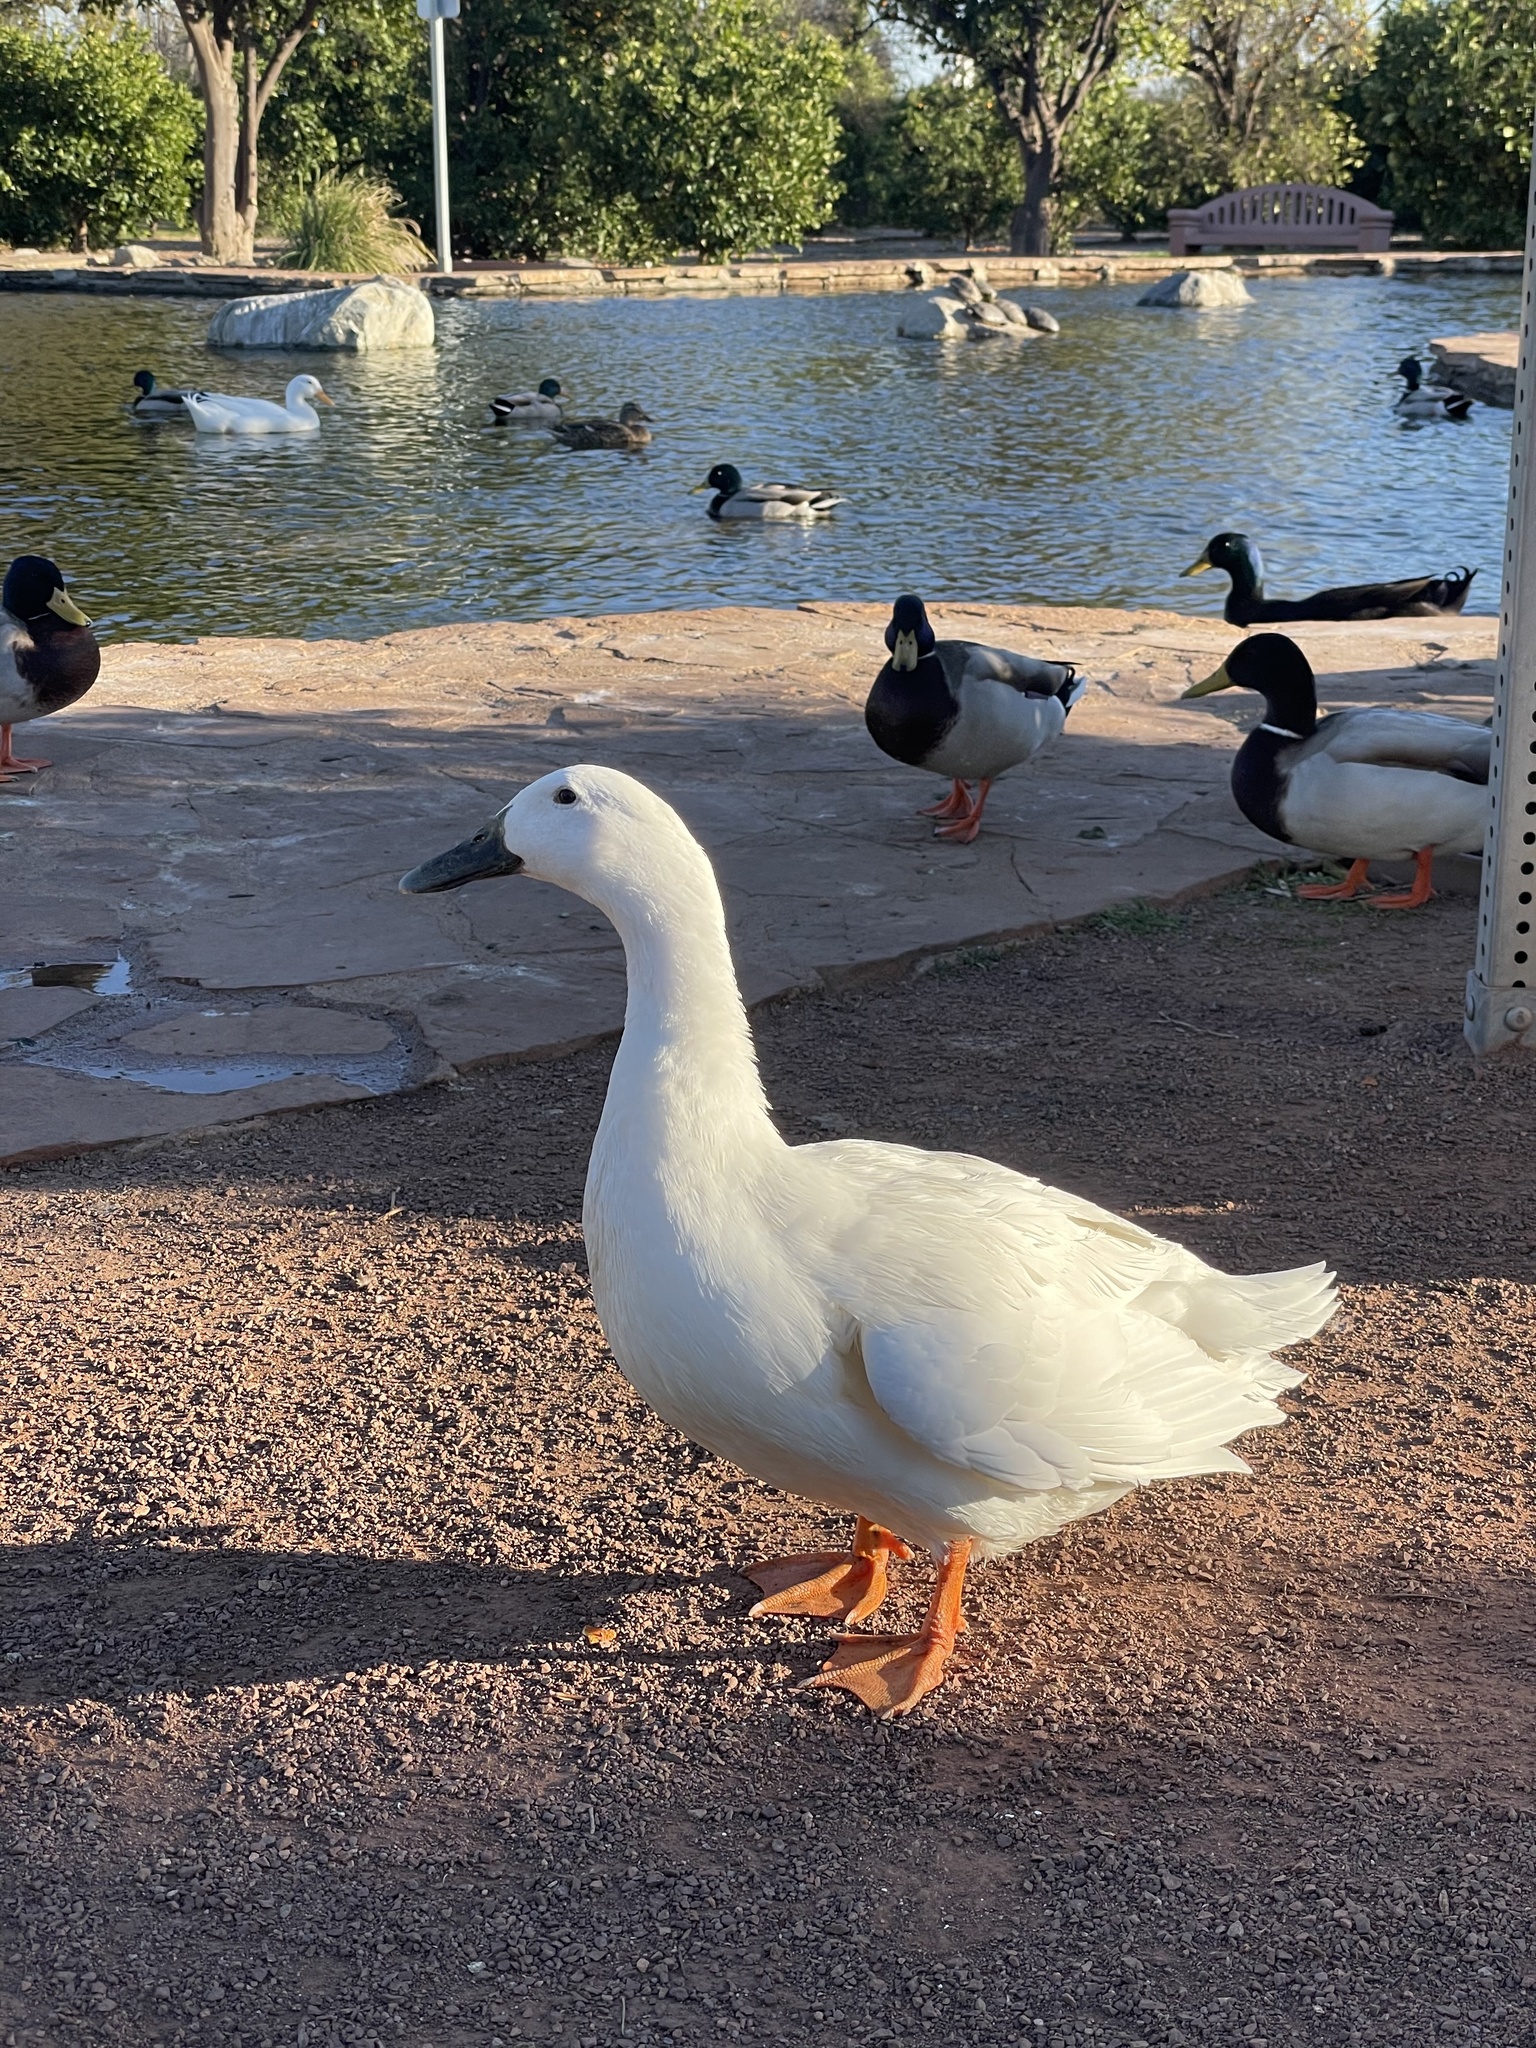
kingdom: Animalia
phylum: Chordata
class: Aves
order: Anseriformes
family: Anatidae
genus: Anas
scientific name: Anas platyrhynchos
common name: Mallard
